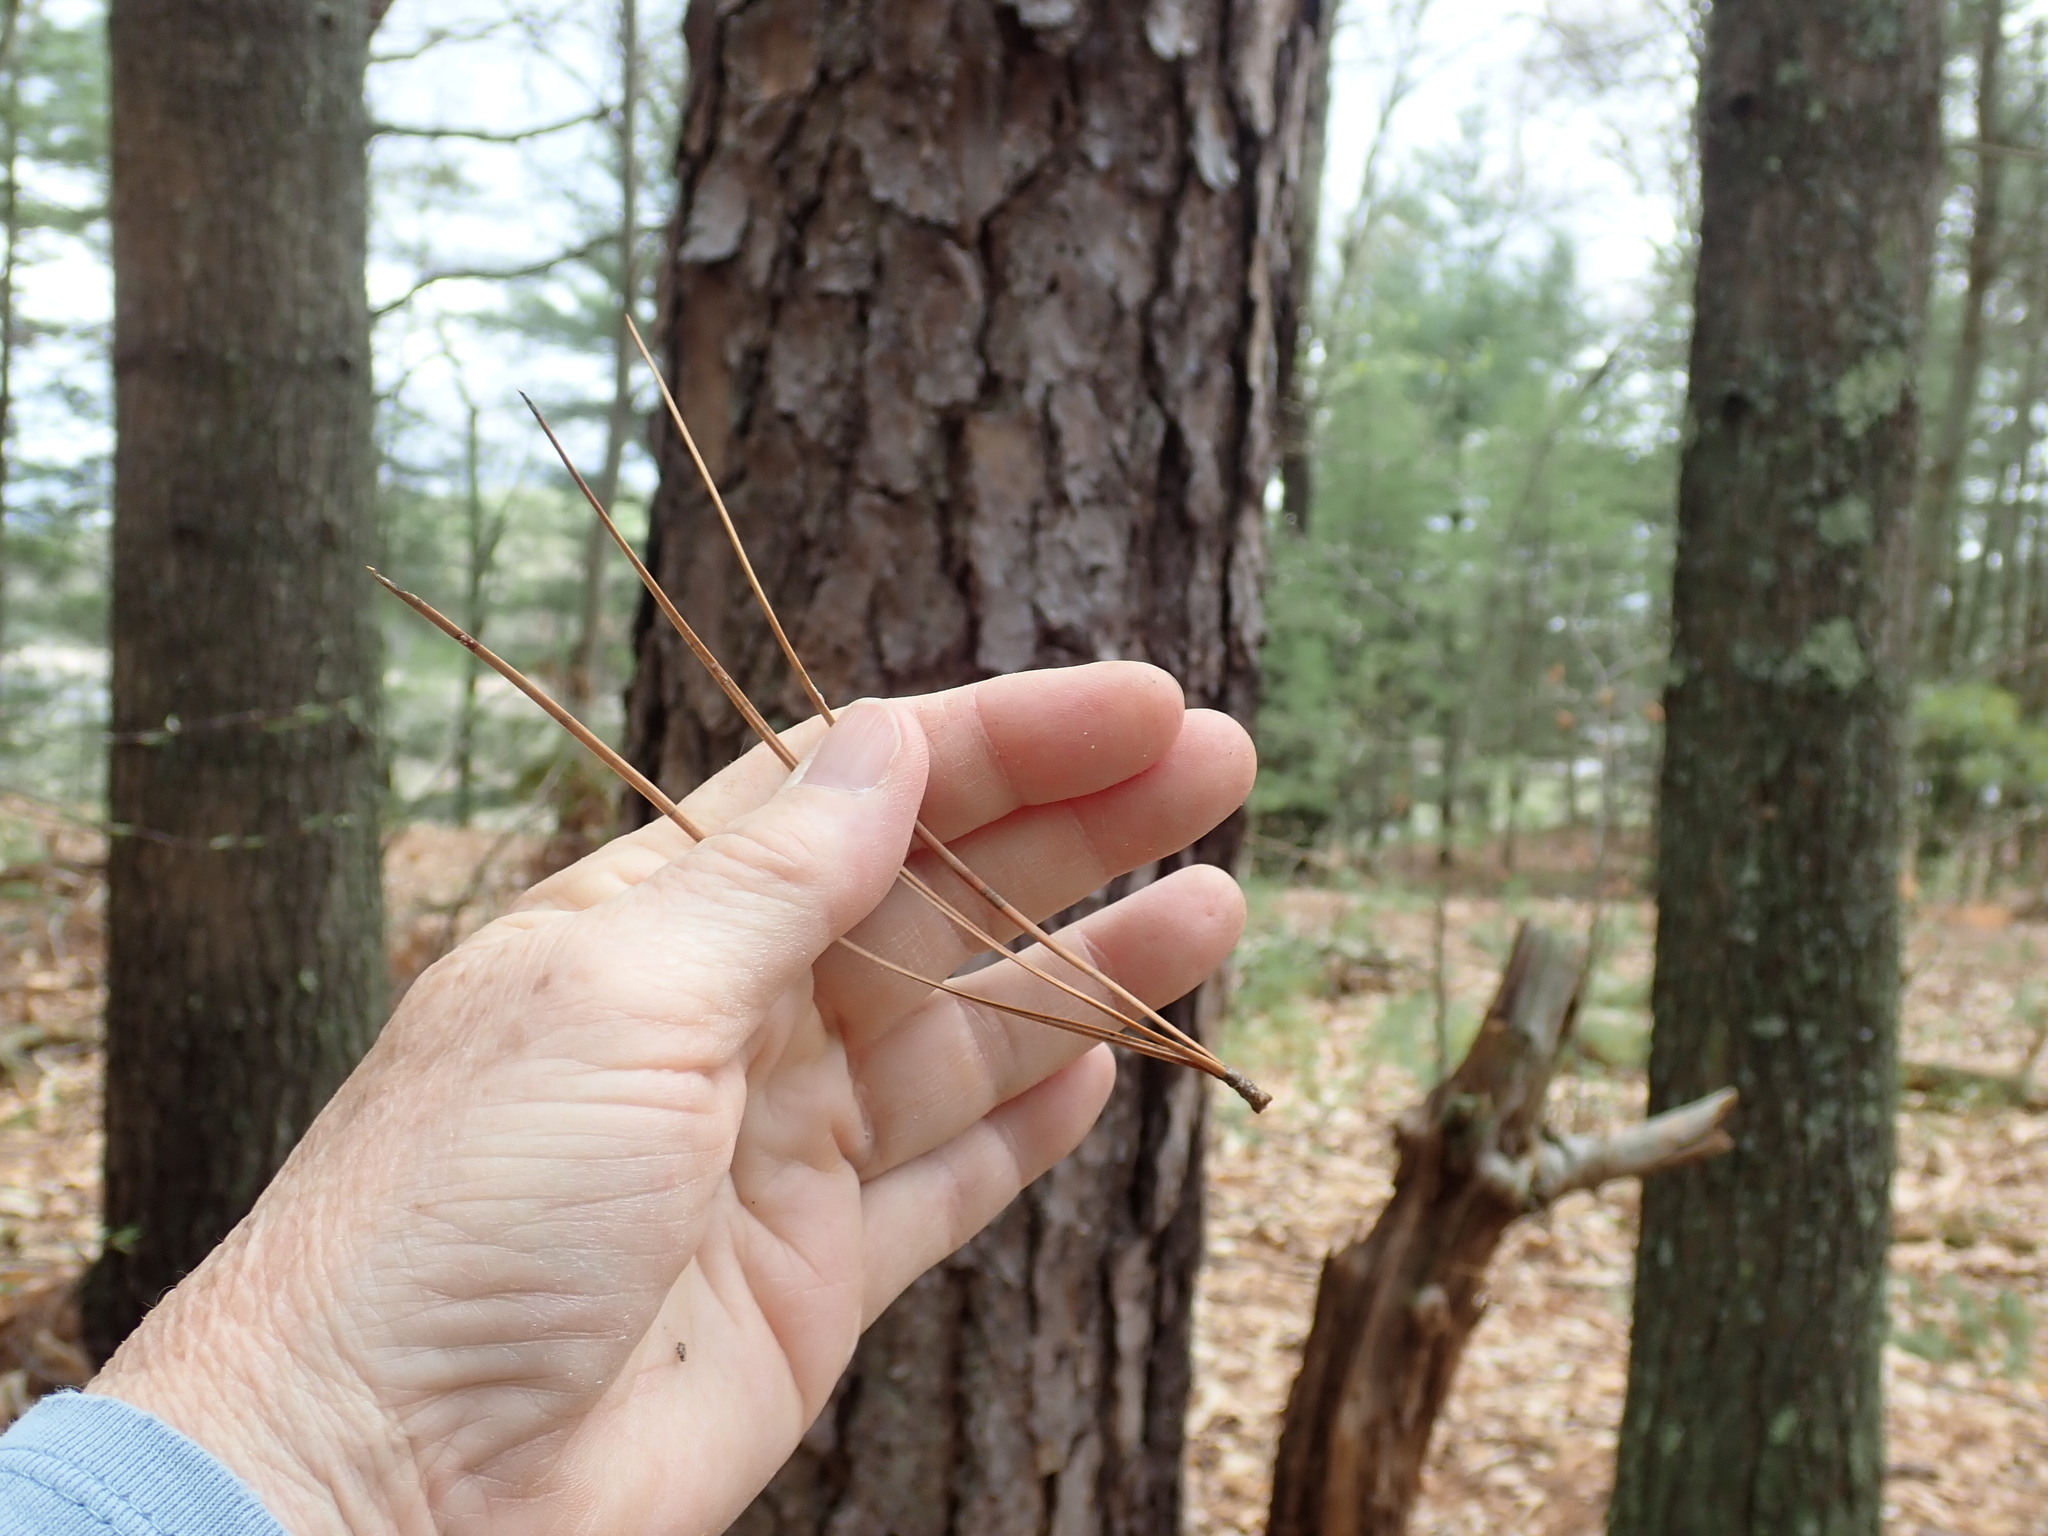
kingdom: Plantae
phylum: Tracheophyta
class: Pinopsida
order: Pinales
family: Pinaceae
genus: Pinus
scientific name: Pinus rigida
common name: Pitch pine
